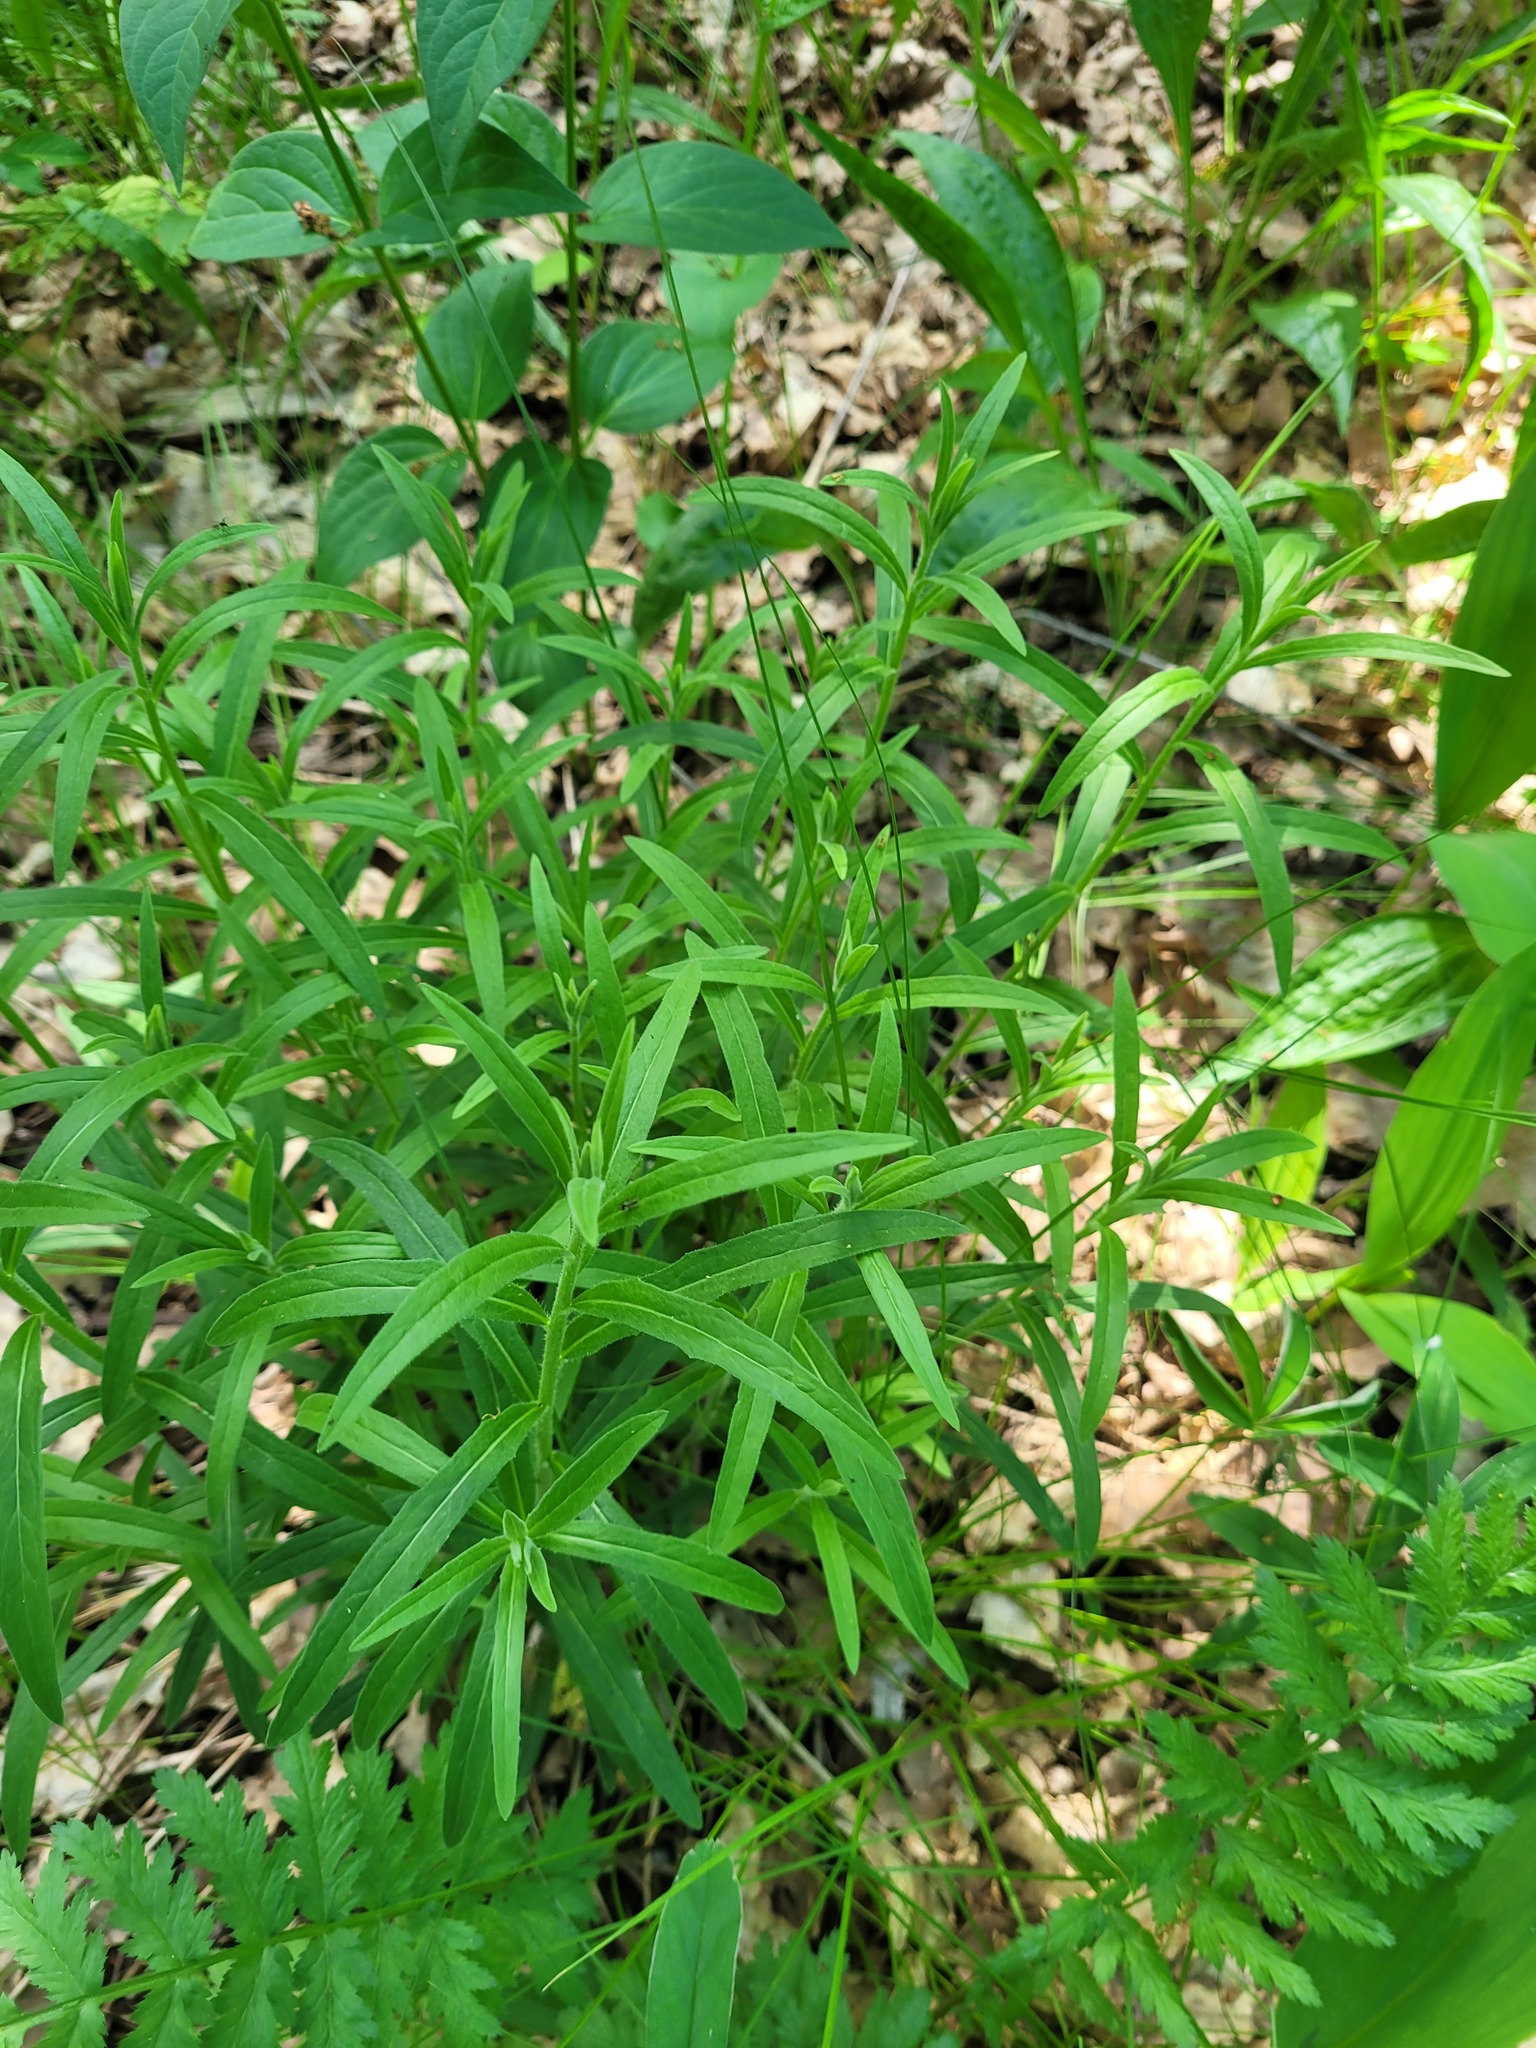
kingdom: Plantae
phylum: Tracheophyta
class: Magnoliopsida
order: Asterales
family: Asteraceae
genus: Hieracium
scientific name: Hieracium umbellatum
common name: Northern hawkweed
